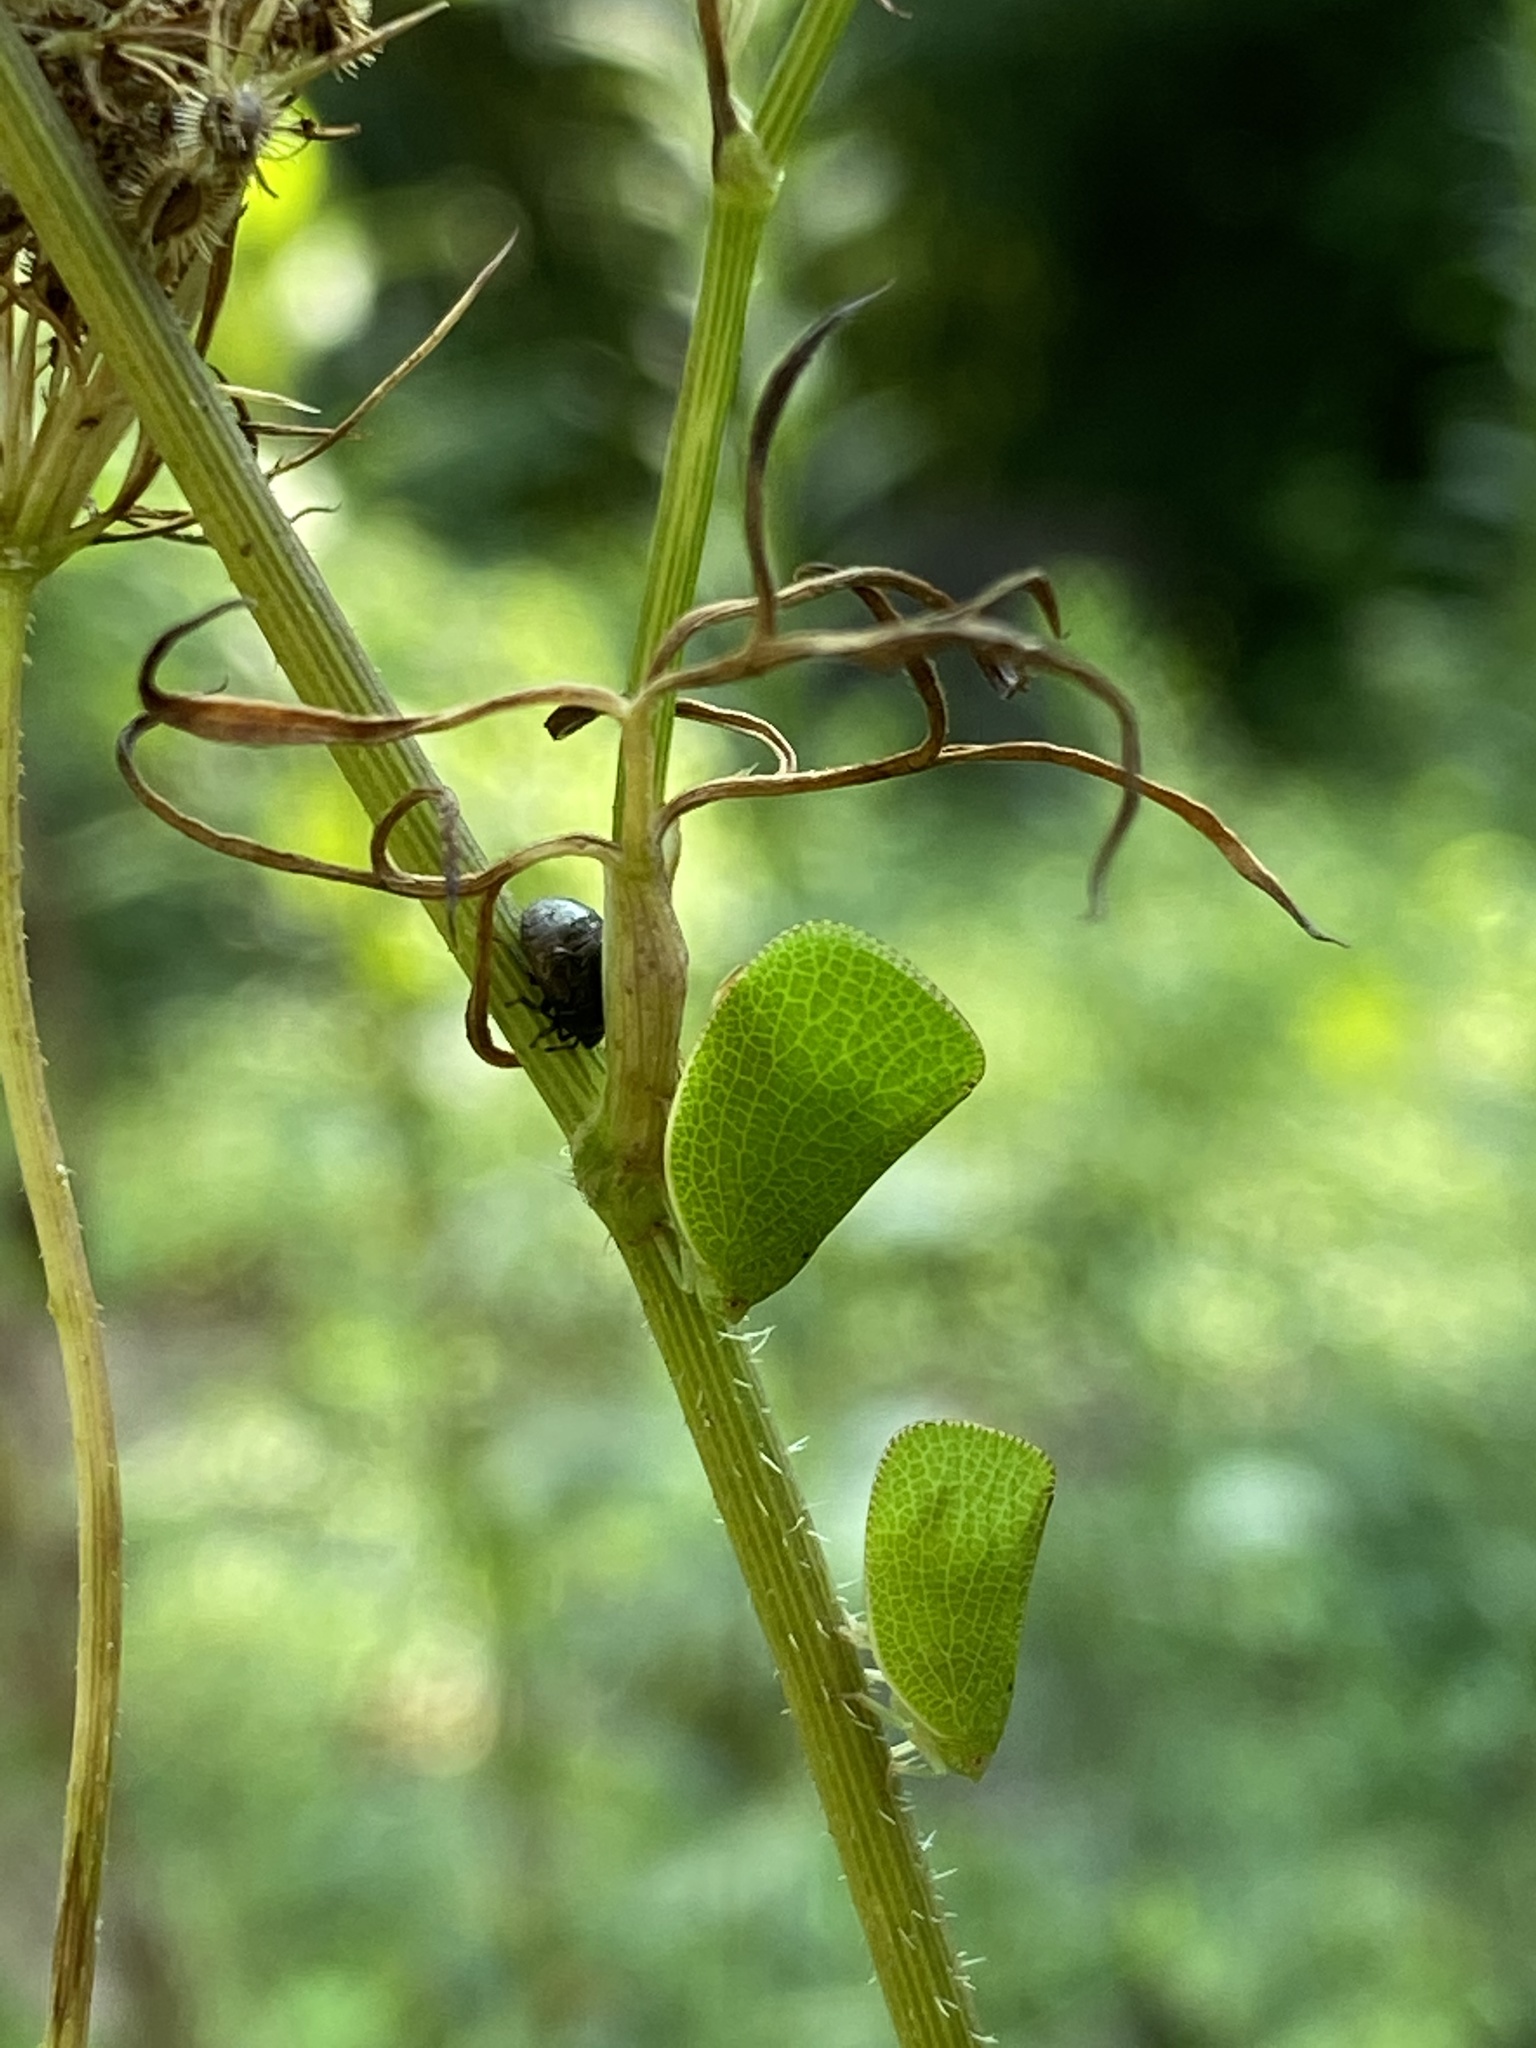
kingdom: Animalia
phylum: Arthropoda
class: Insecta
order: Hemiptera
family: Acanaloniidae
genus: Acanalonia
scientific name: Acanalonia conica
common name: Green cone-headed planthopper
